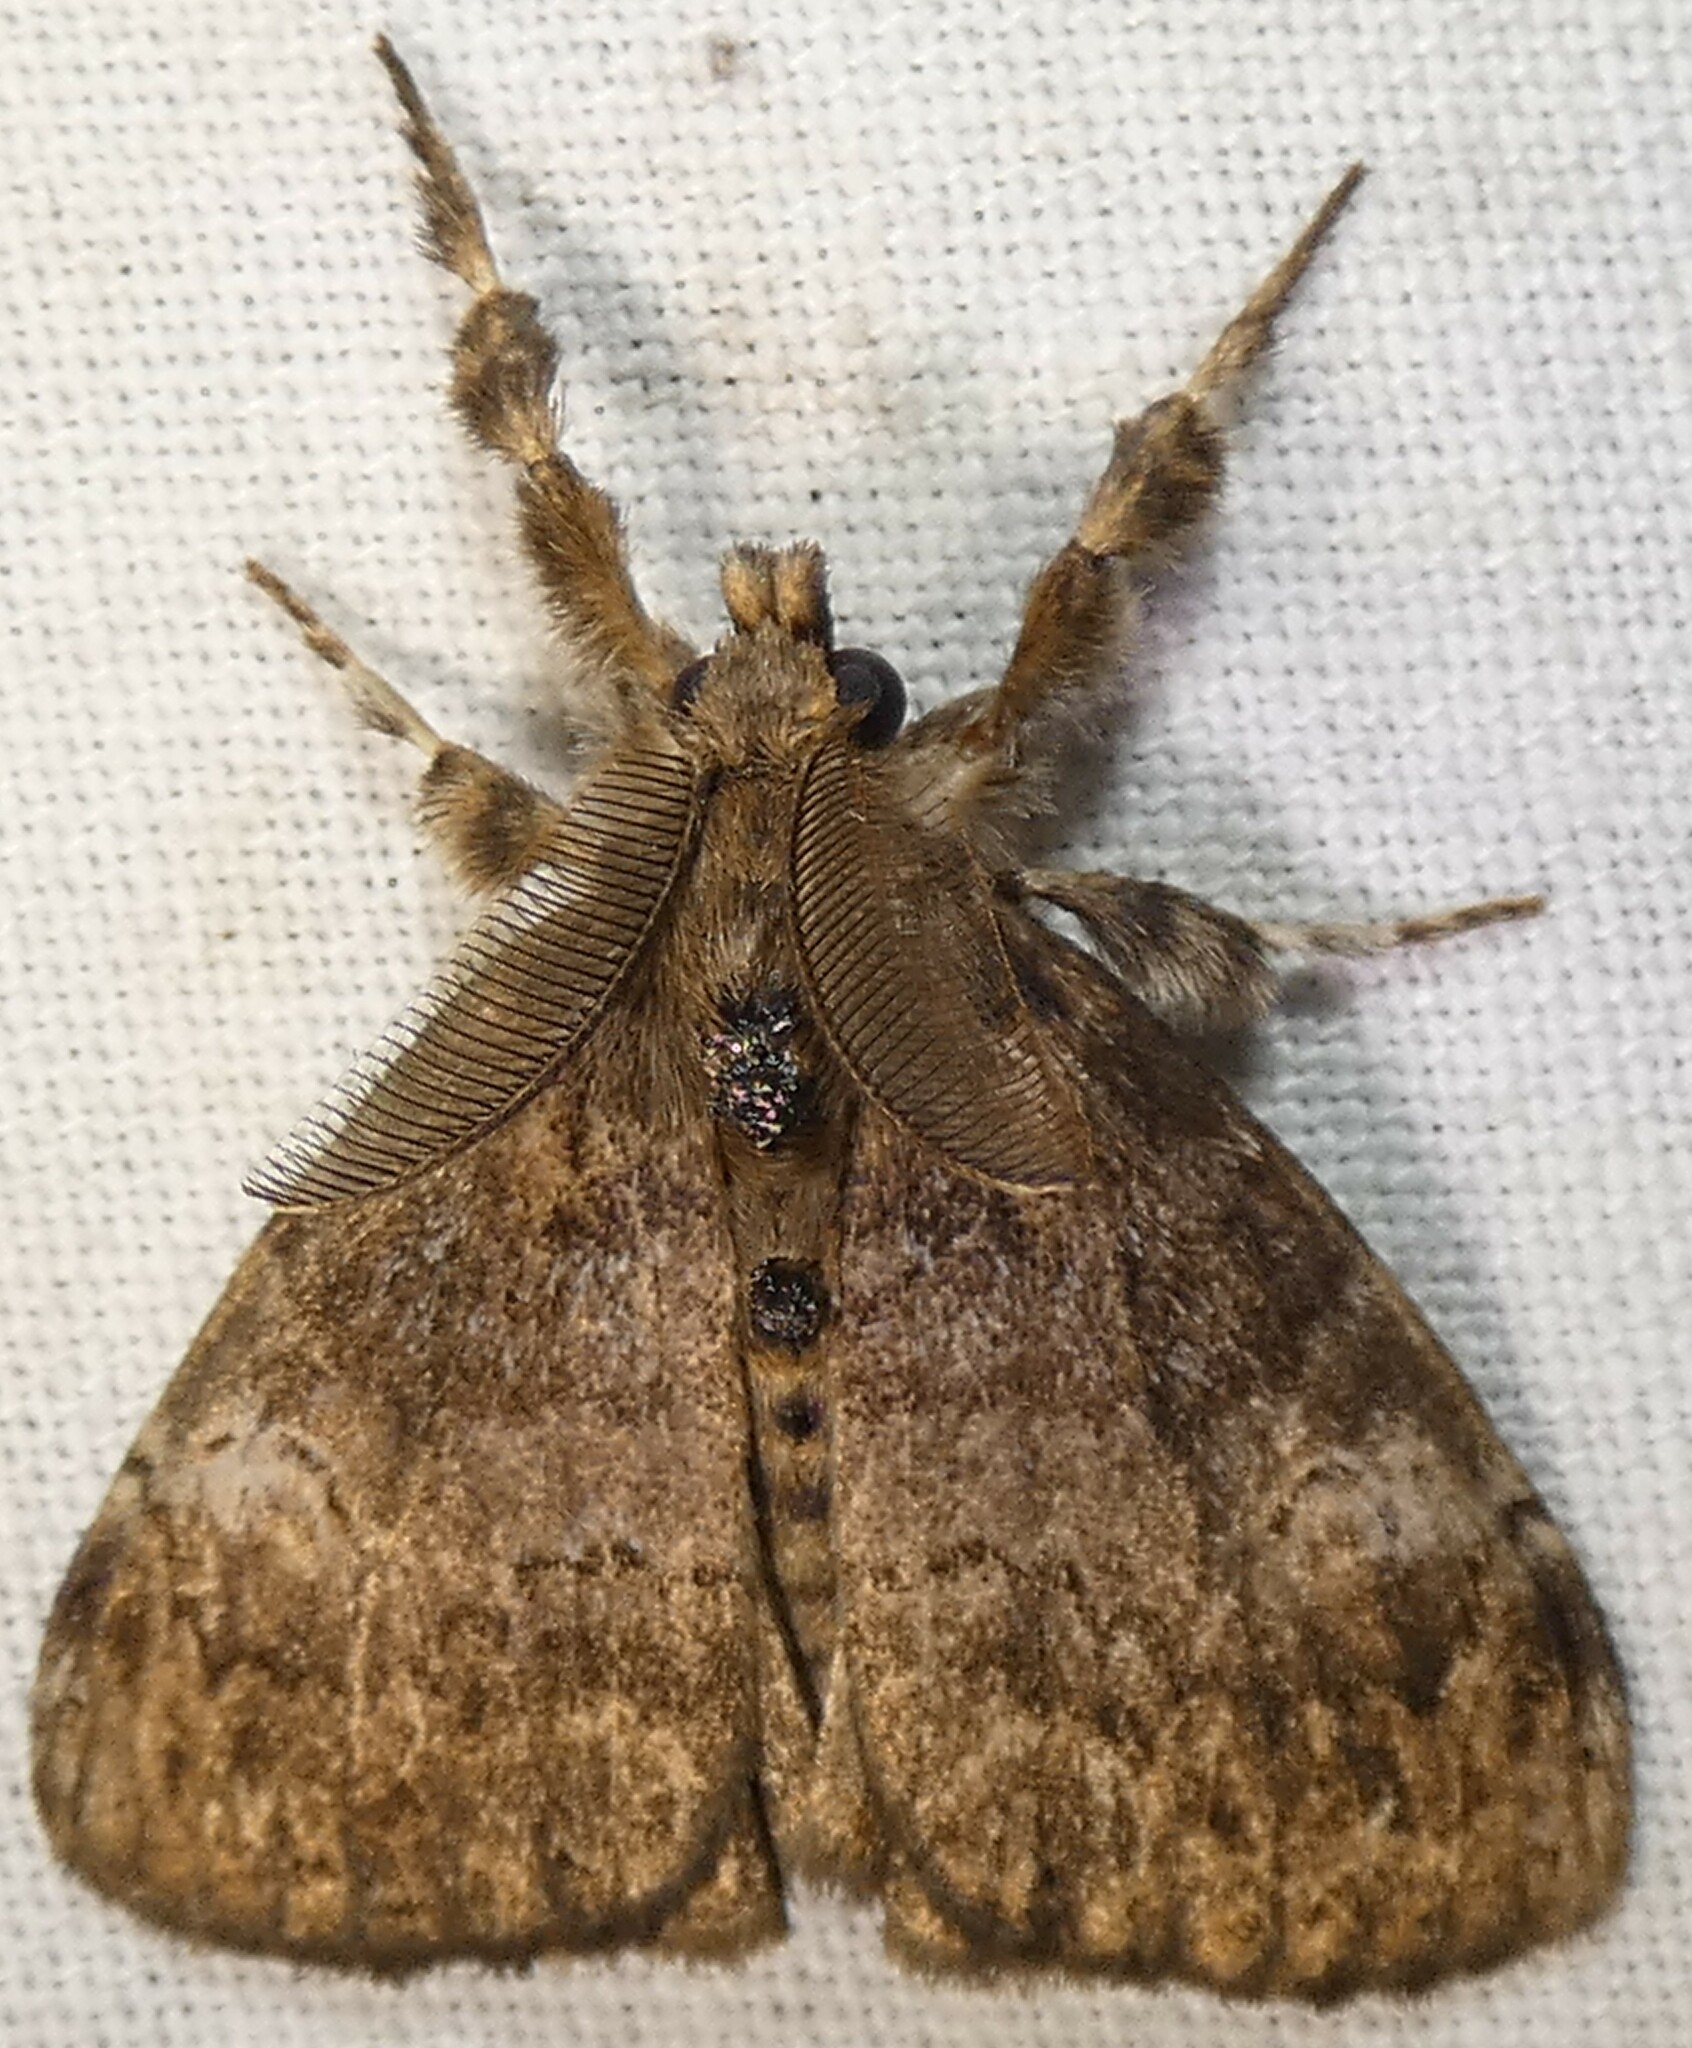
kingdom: Animalia
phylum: Arthropoda
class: Insecta
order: Lepidoptera
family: Erebidae
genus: Orgyia
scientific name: Orgyia detrita
